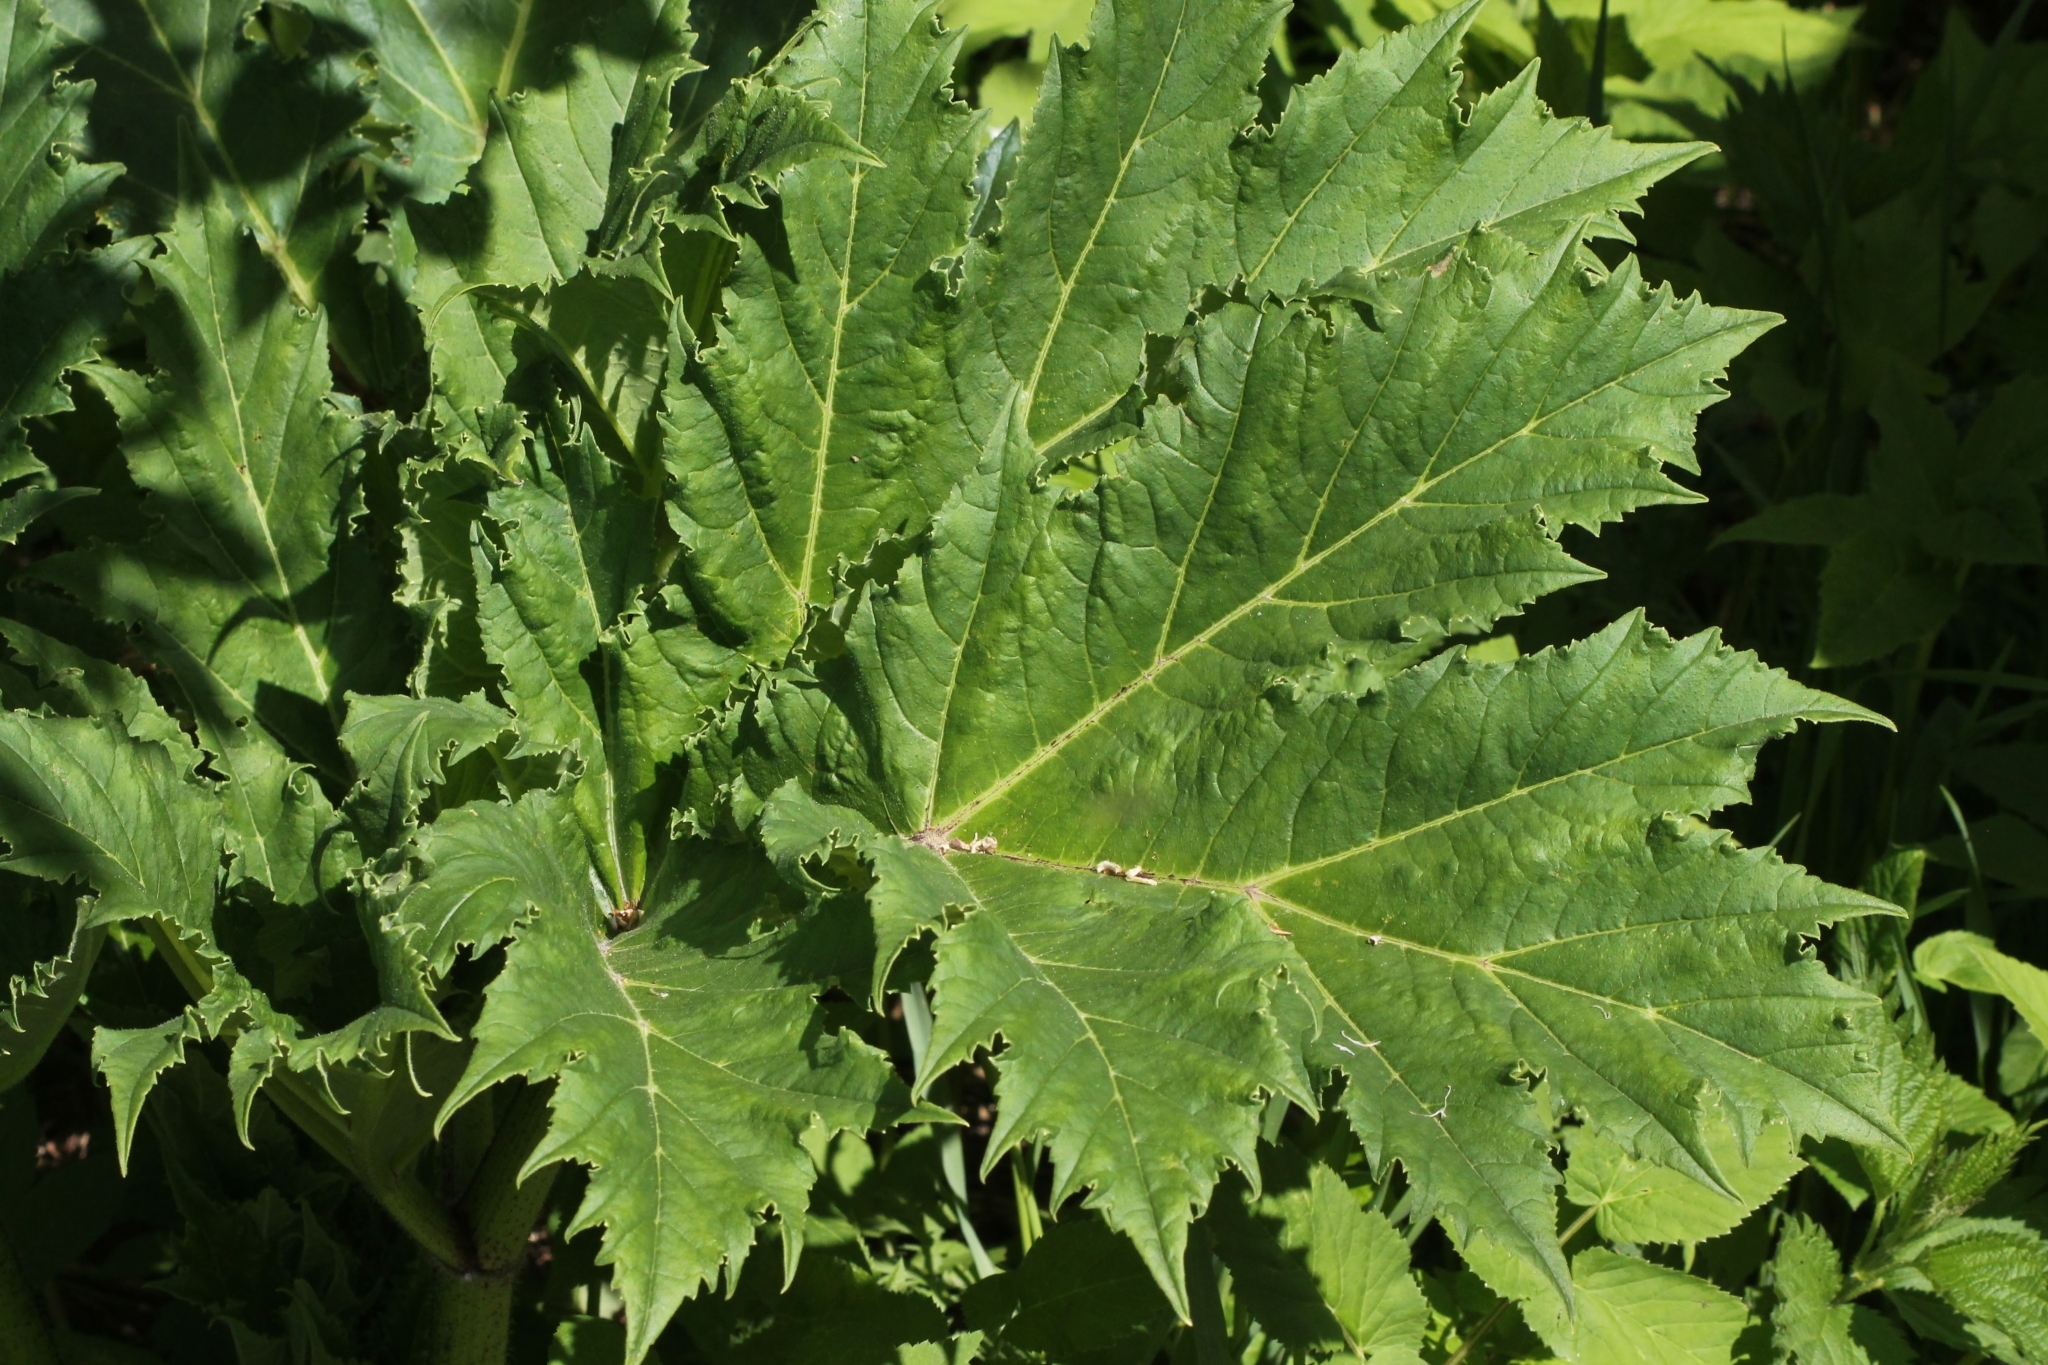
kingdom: Plantae
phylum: Tracheophyta
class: Magnoliopsida
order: Apiales
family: Apiaceae
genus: Heracleum
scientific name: Heracleum sosnowskyi
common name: Sosnowsky's hogweed
